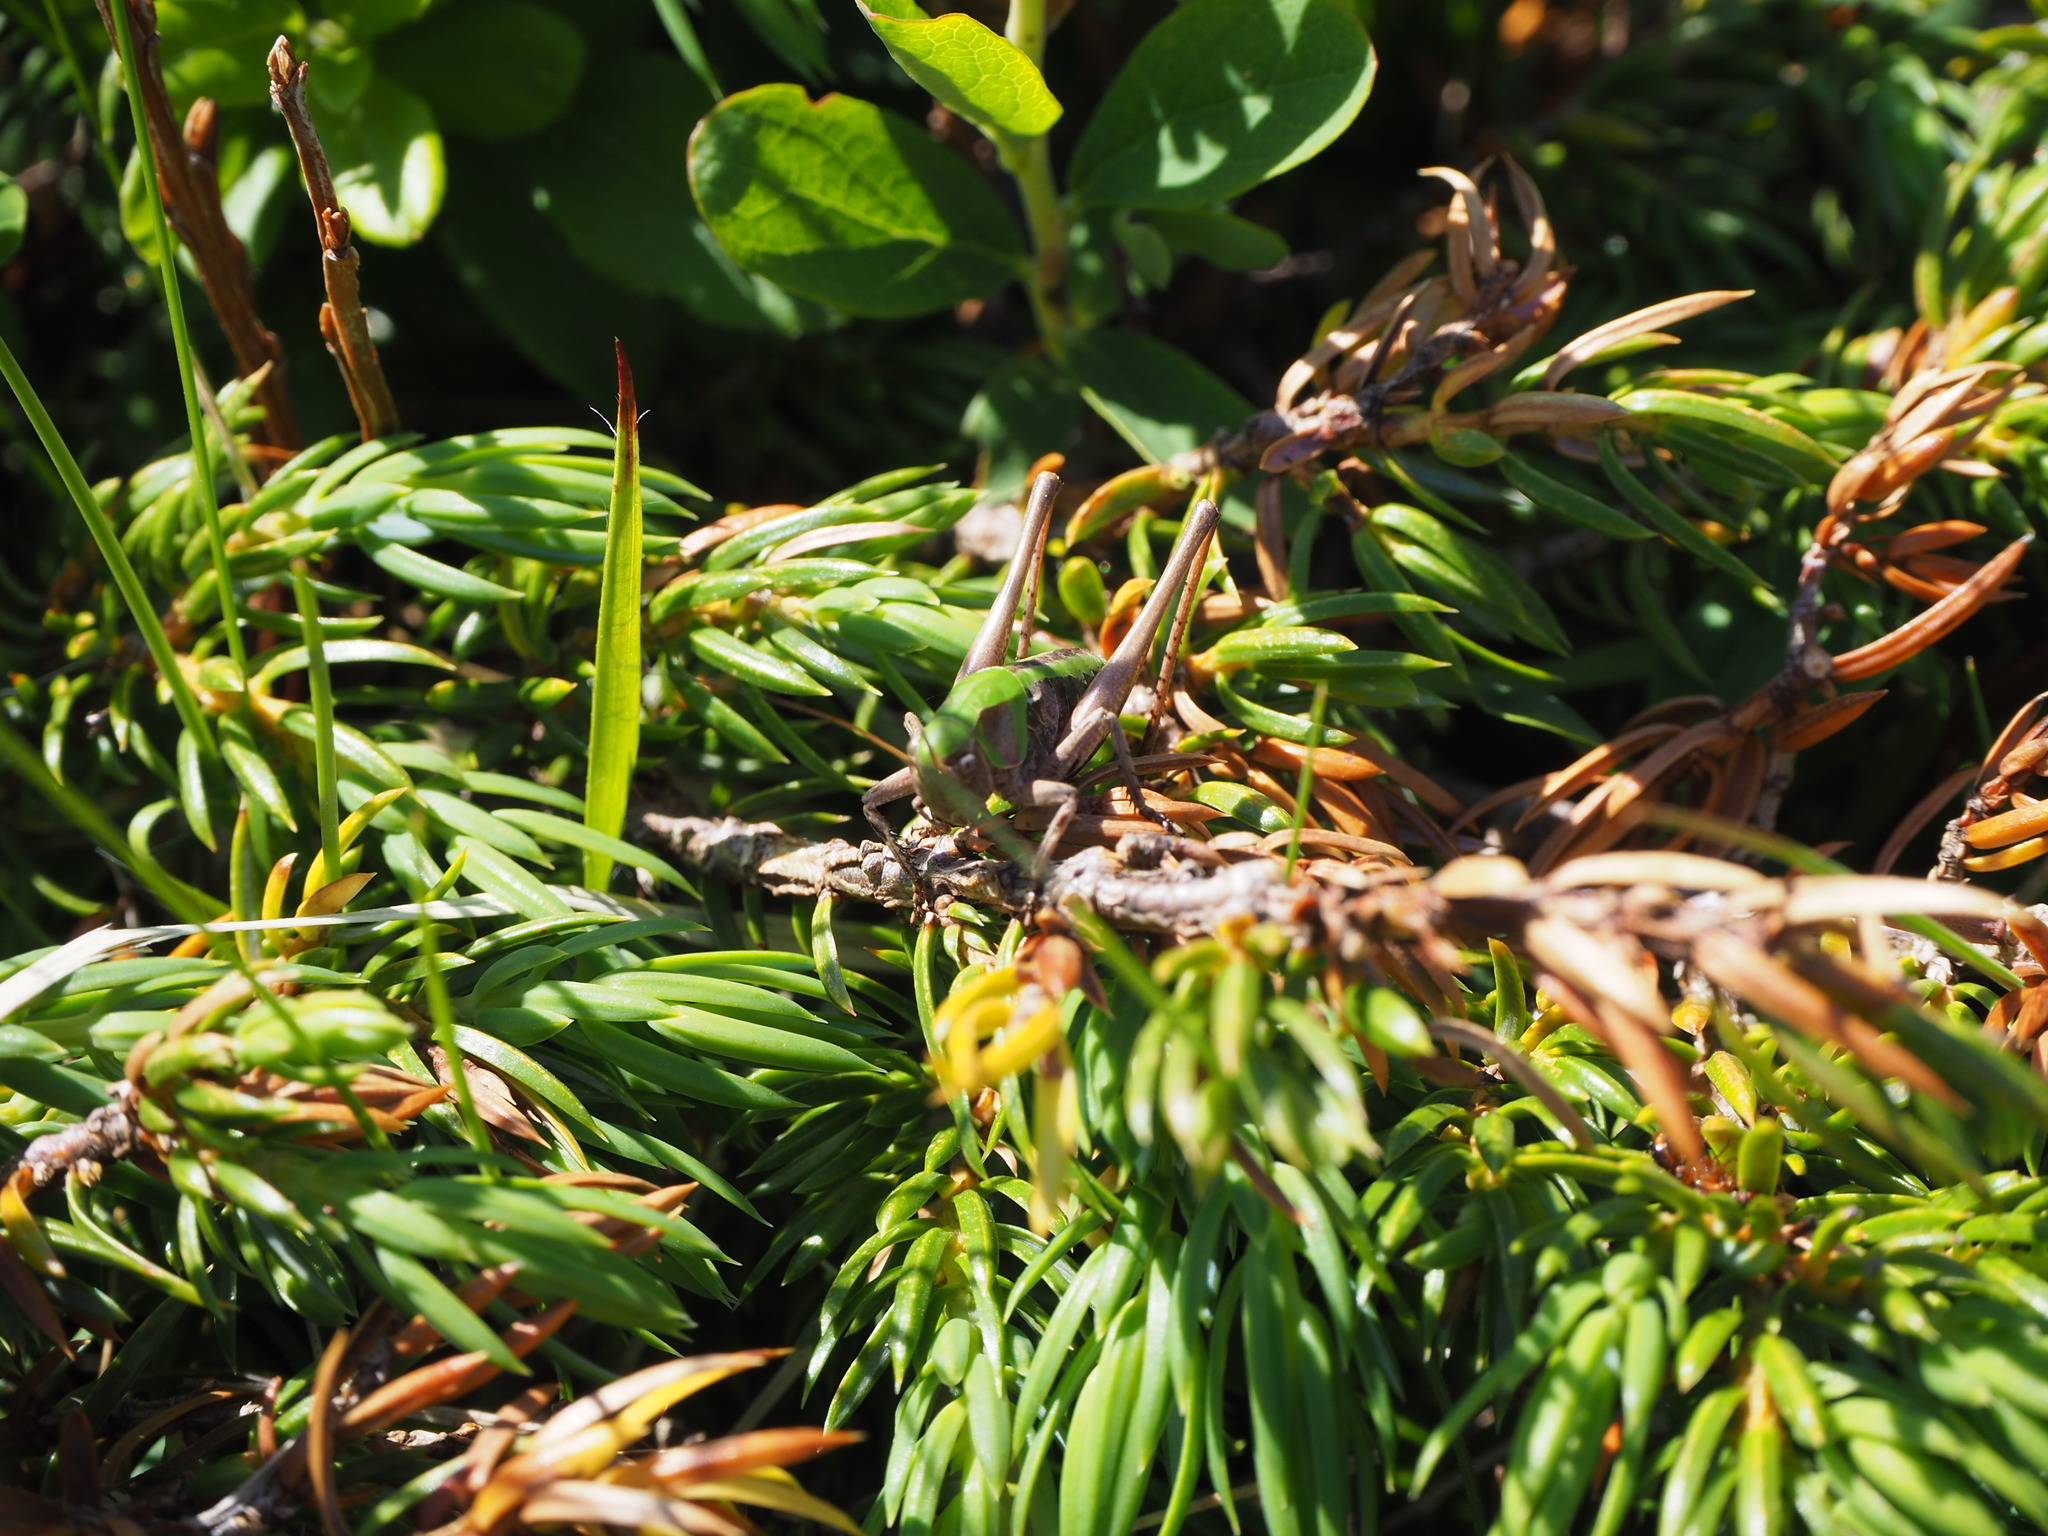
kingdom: Animalia
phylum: Arthropoda
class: Insecta
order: Orthoptera
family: Tettigoniidae
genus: Decticus
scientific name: Decticus verrucivorus
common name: Wart-biter
